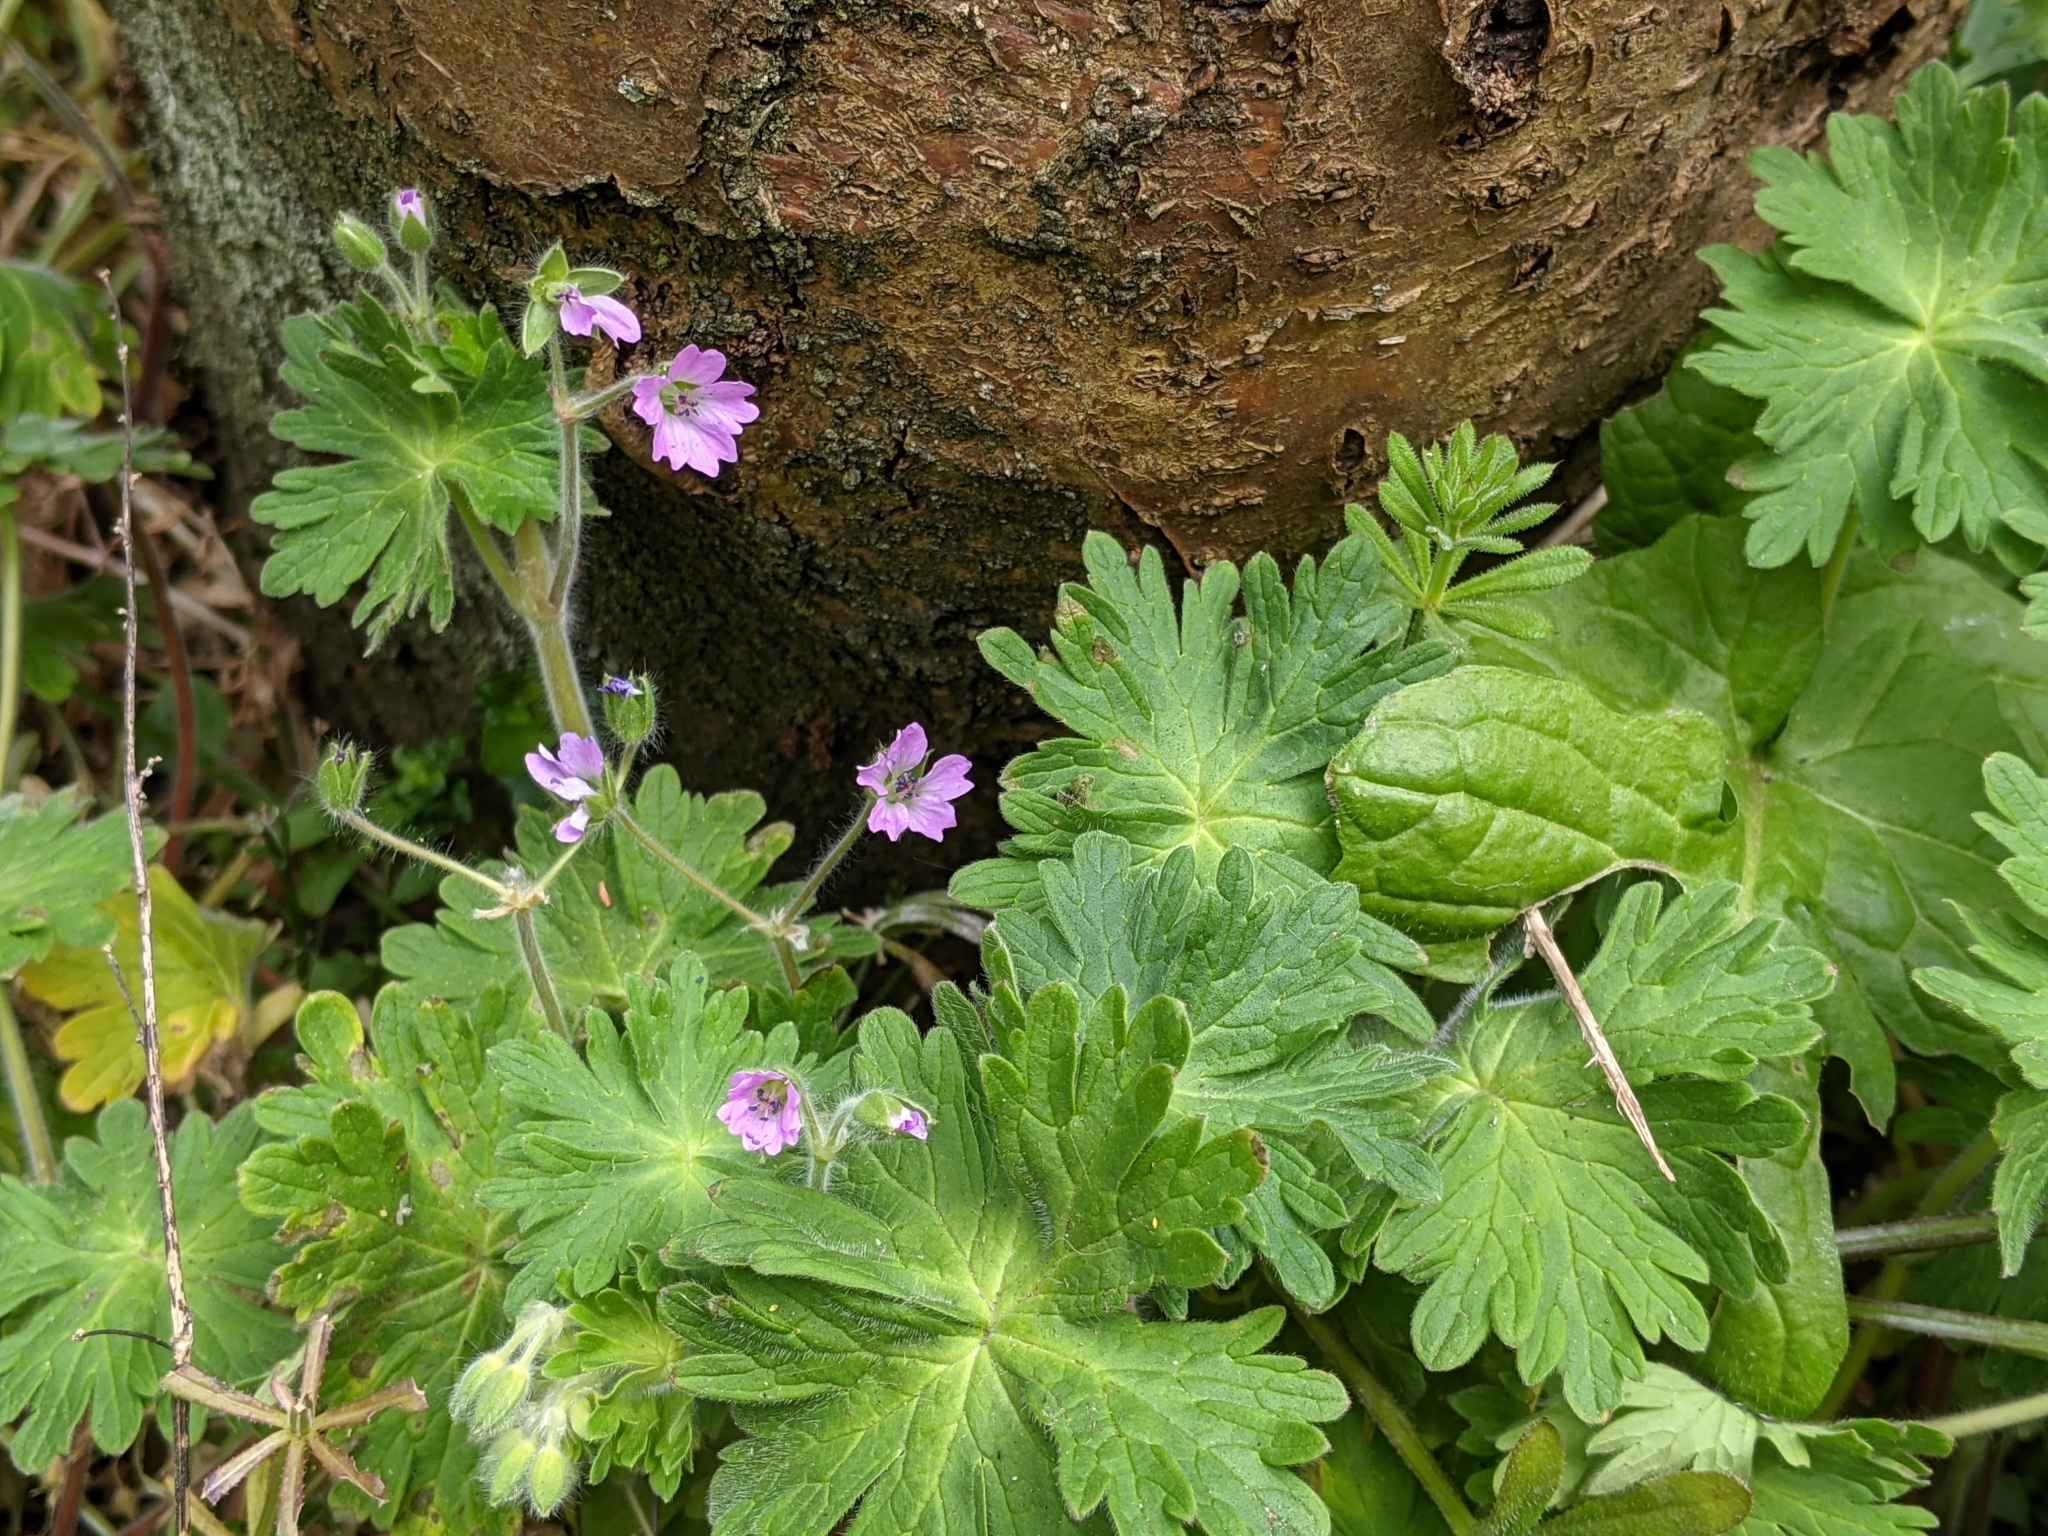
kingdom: Plantae
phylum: Tracheophyta
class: Magnoliopsida
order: Geraniales
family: Geraniaceae
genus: Geranium
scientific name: Geranium molle
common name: Dove's-foot crane's-bill
